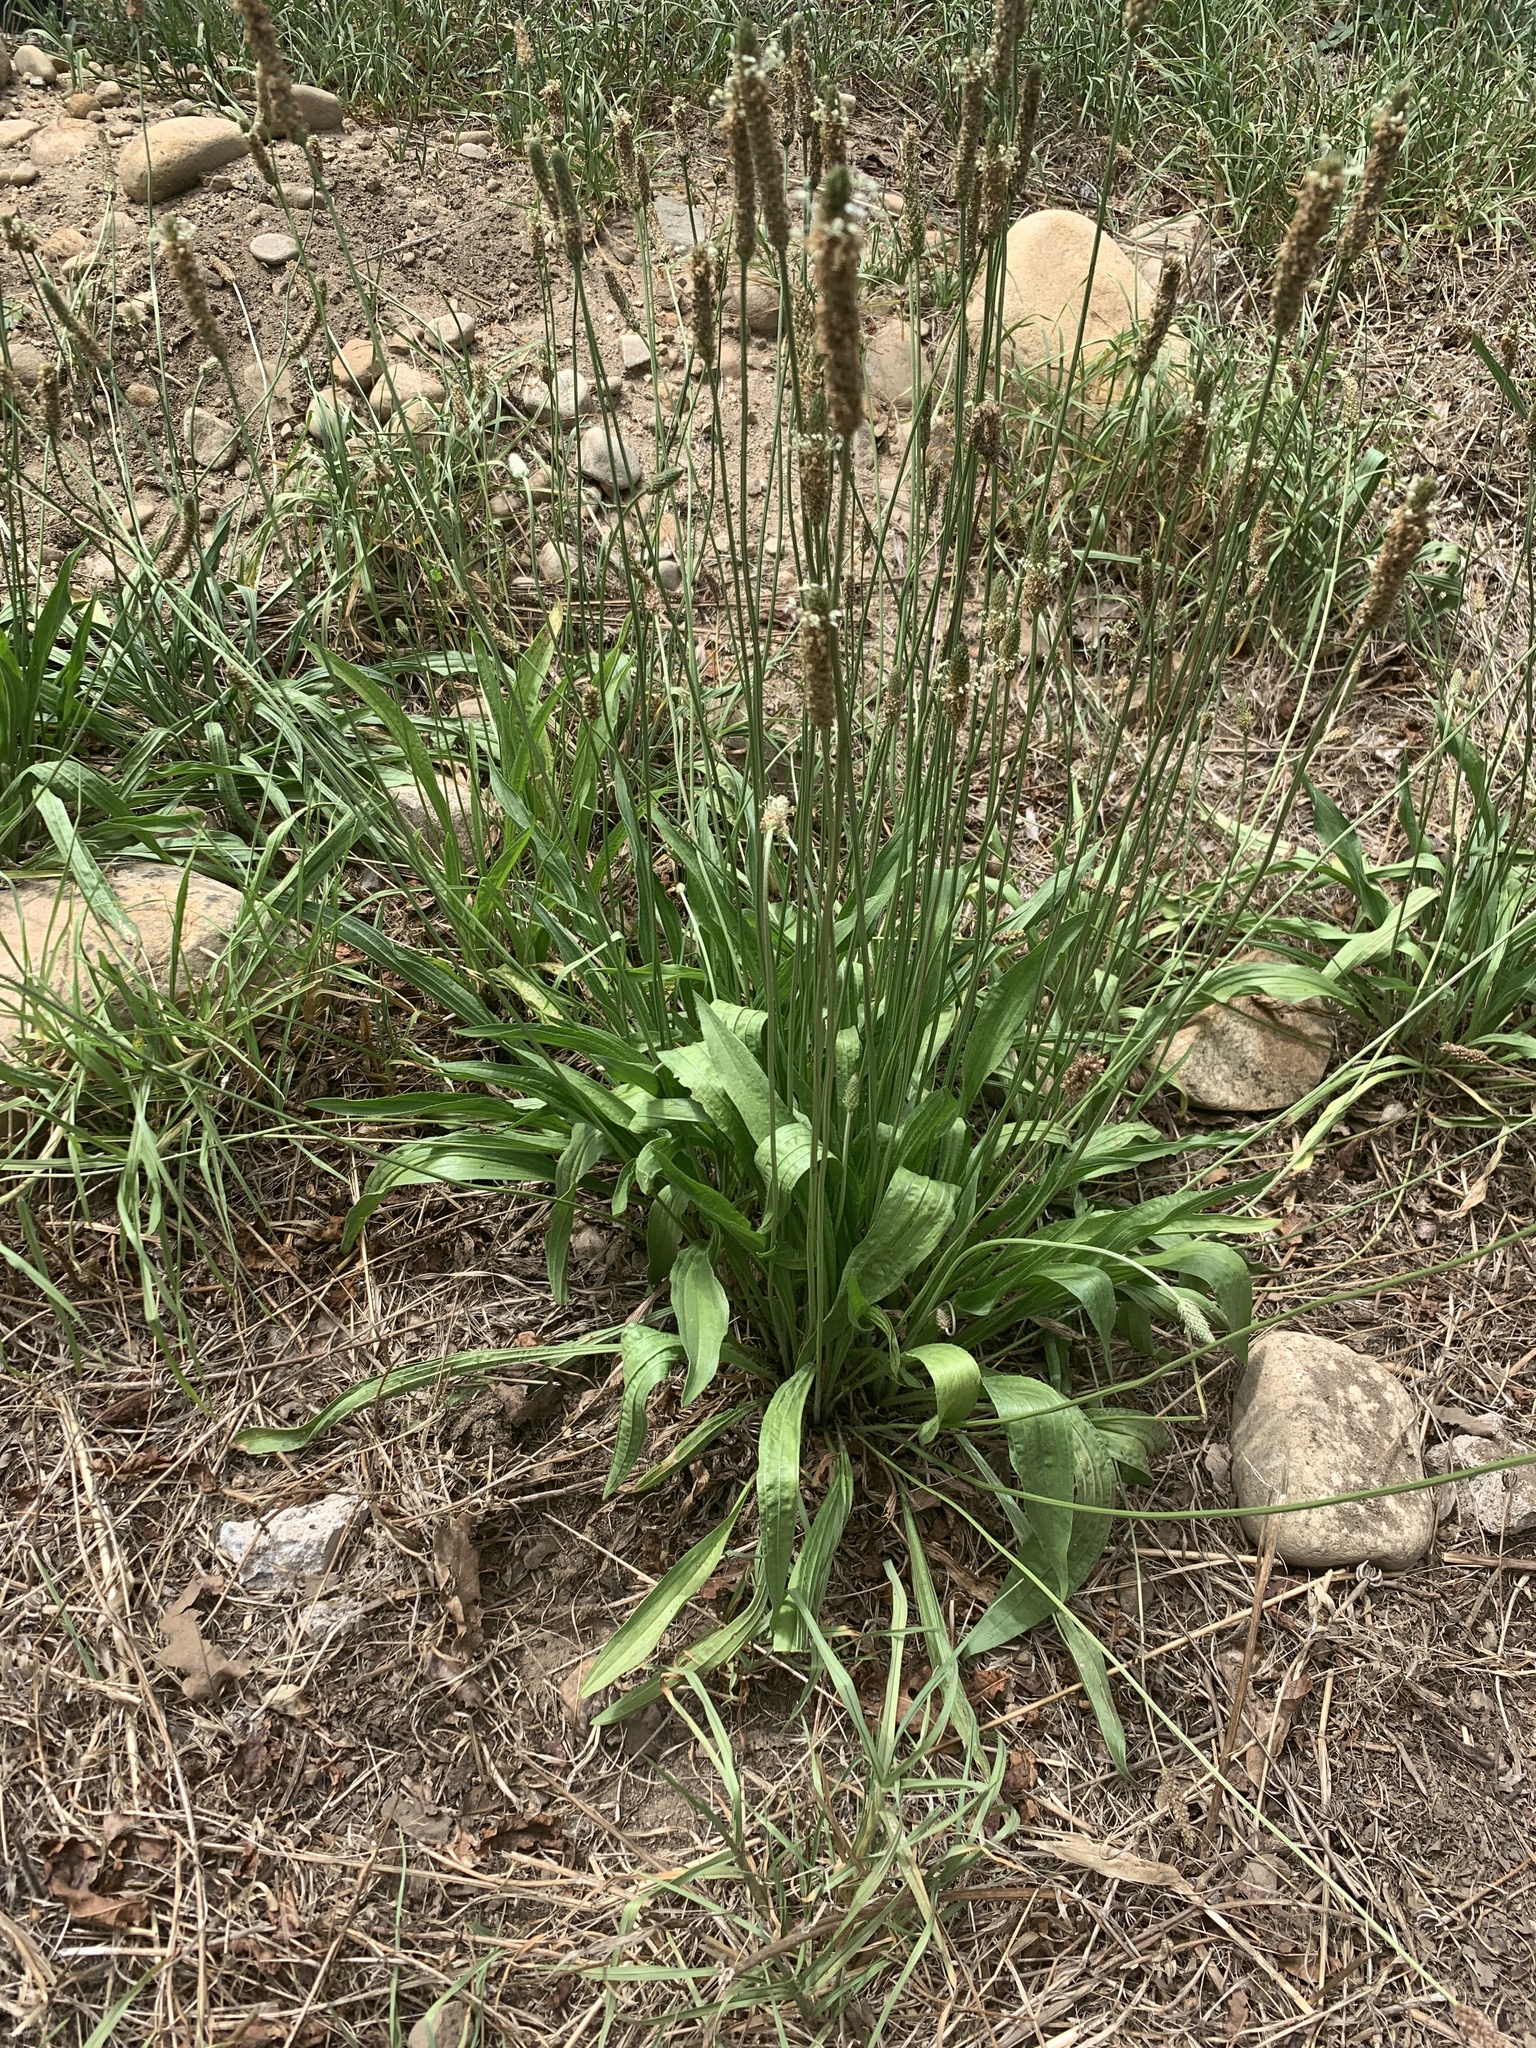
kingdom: Plantae
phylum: Tracheophyta
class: Magnoliopsida
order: Lamiales
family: Plantaginaceae
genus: Plantago
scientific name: Plantago lanceolata
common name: Ribwort plantain
